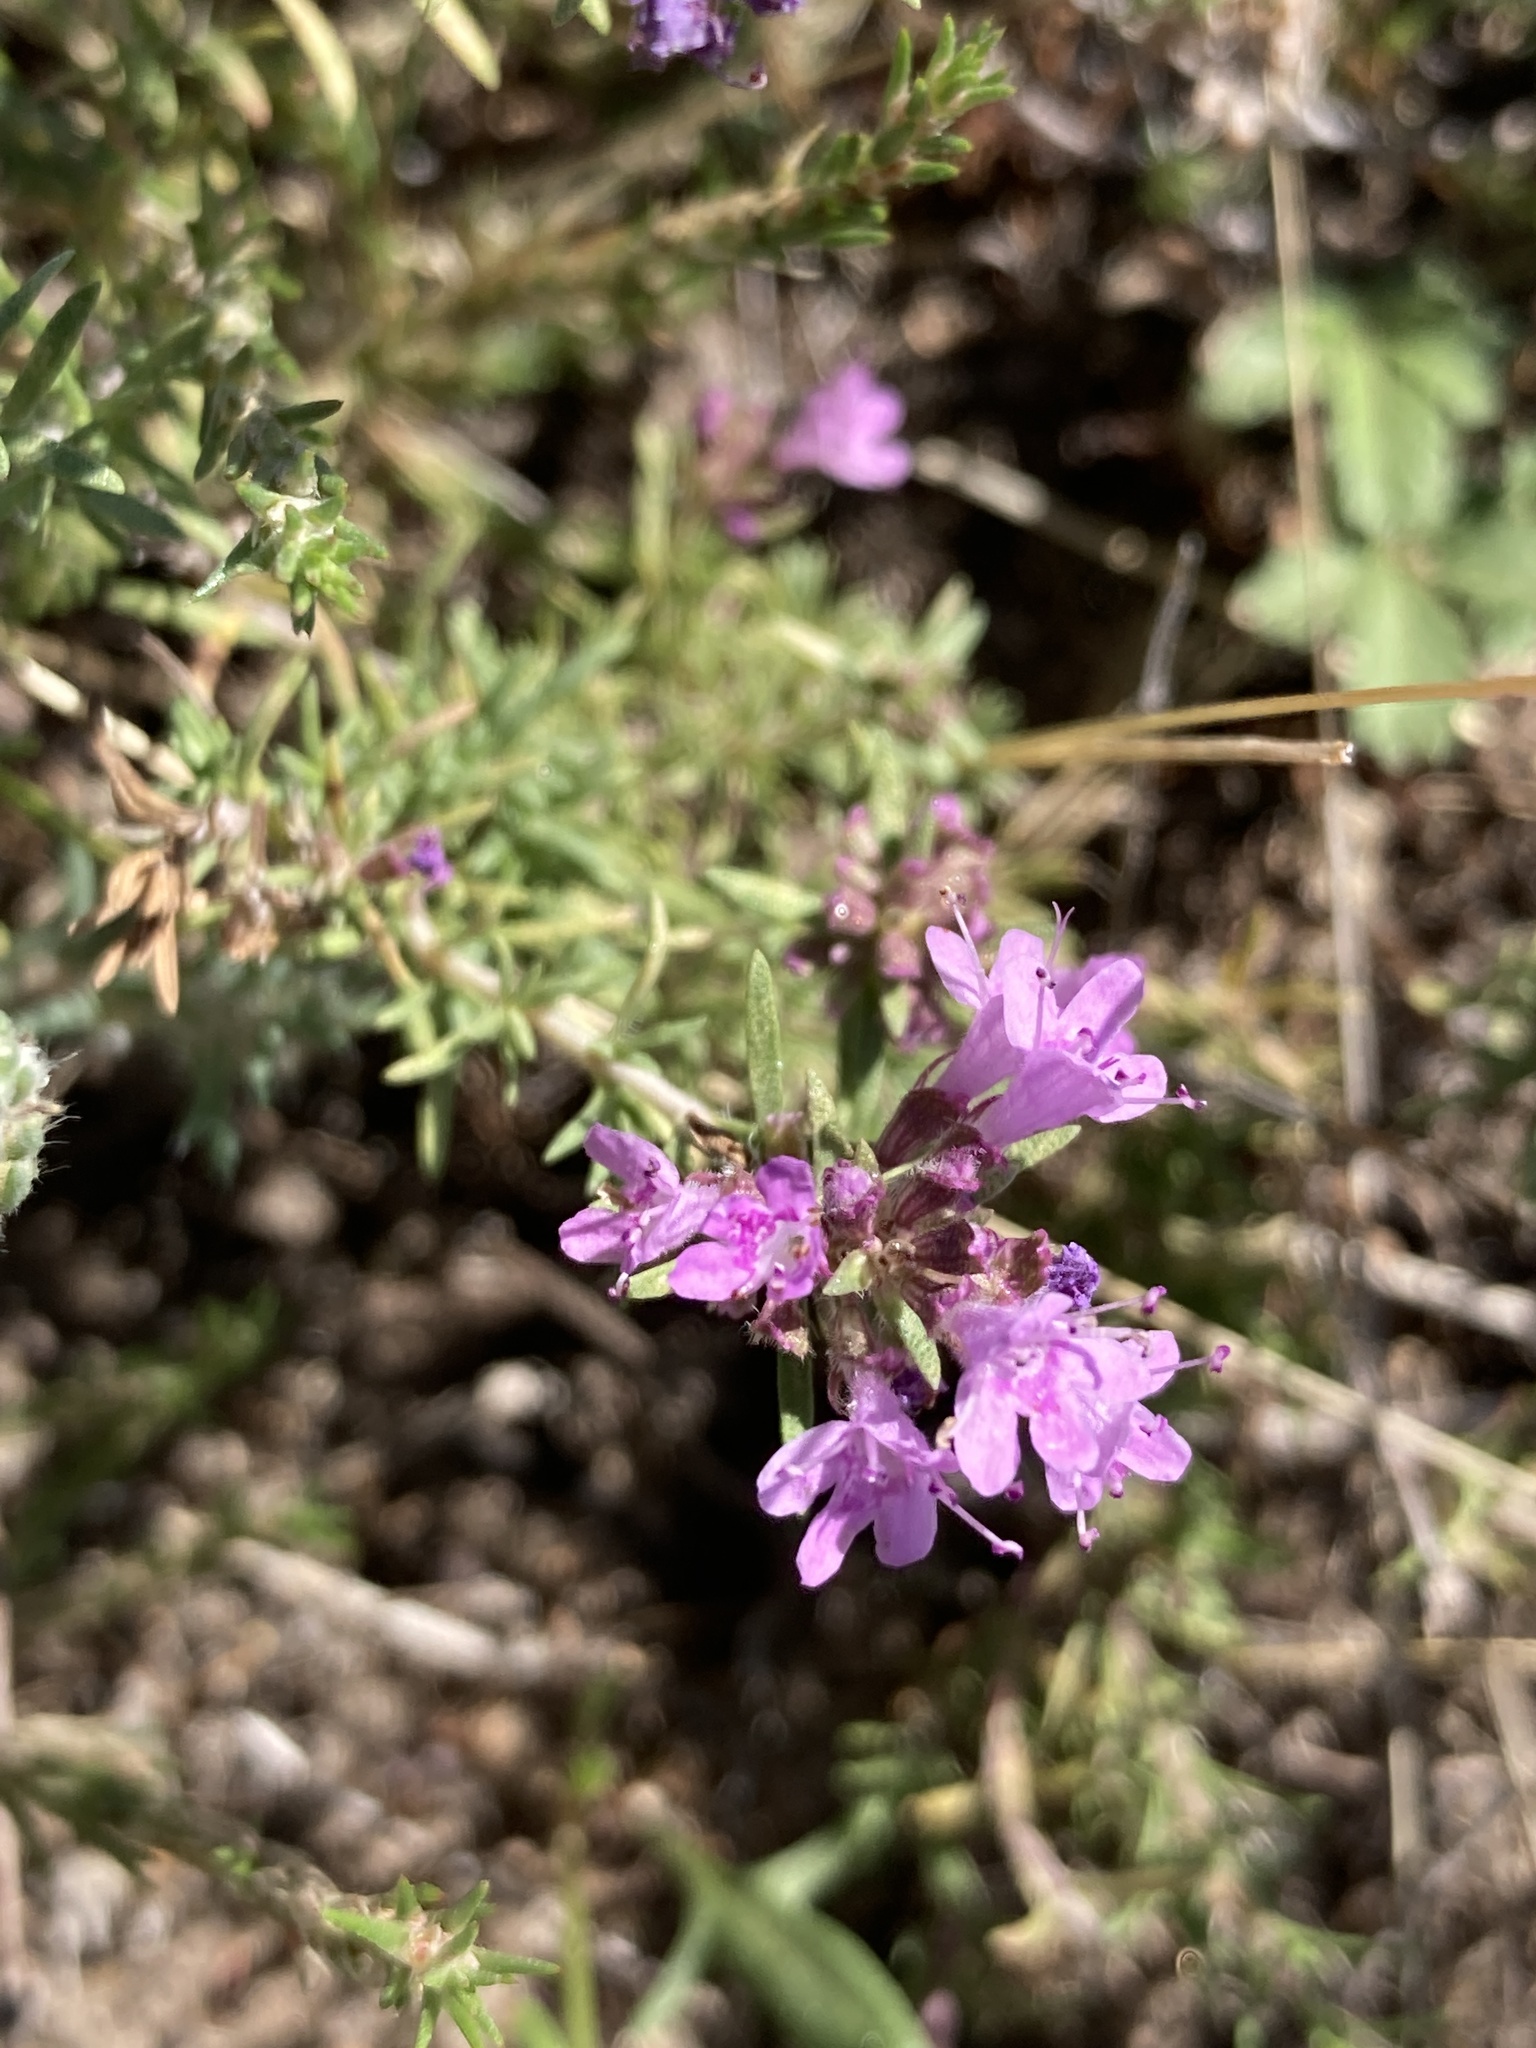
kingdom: Plantae
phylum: Tracheophyta
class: Magnoliopsida
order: Lamiales
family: Lamiaceae
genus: Thymus
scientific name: Thymus pallasianus
